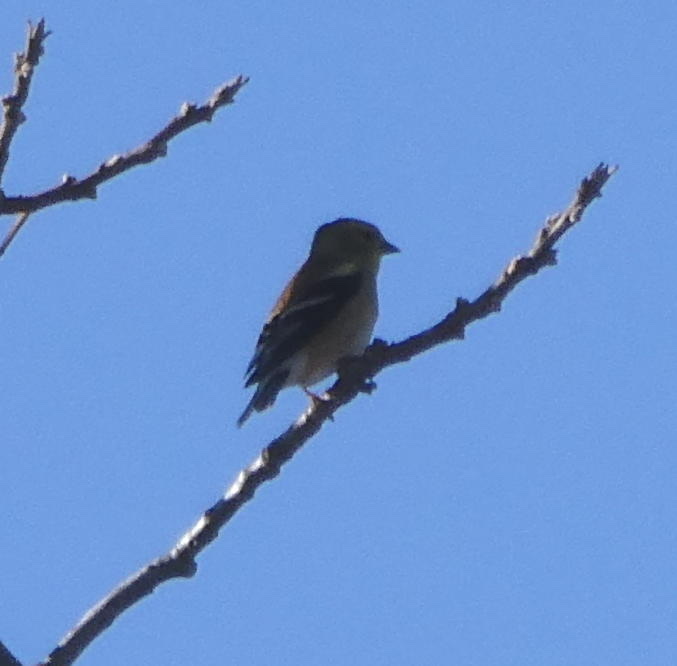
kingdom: Animalia
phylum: Chordata
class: Aves
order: Passeriformes
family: Fringillidae
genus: Spinus
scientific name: Spinus tristis
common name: American goldfinch
